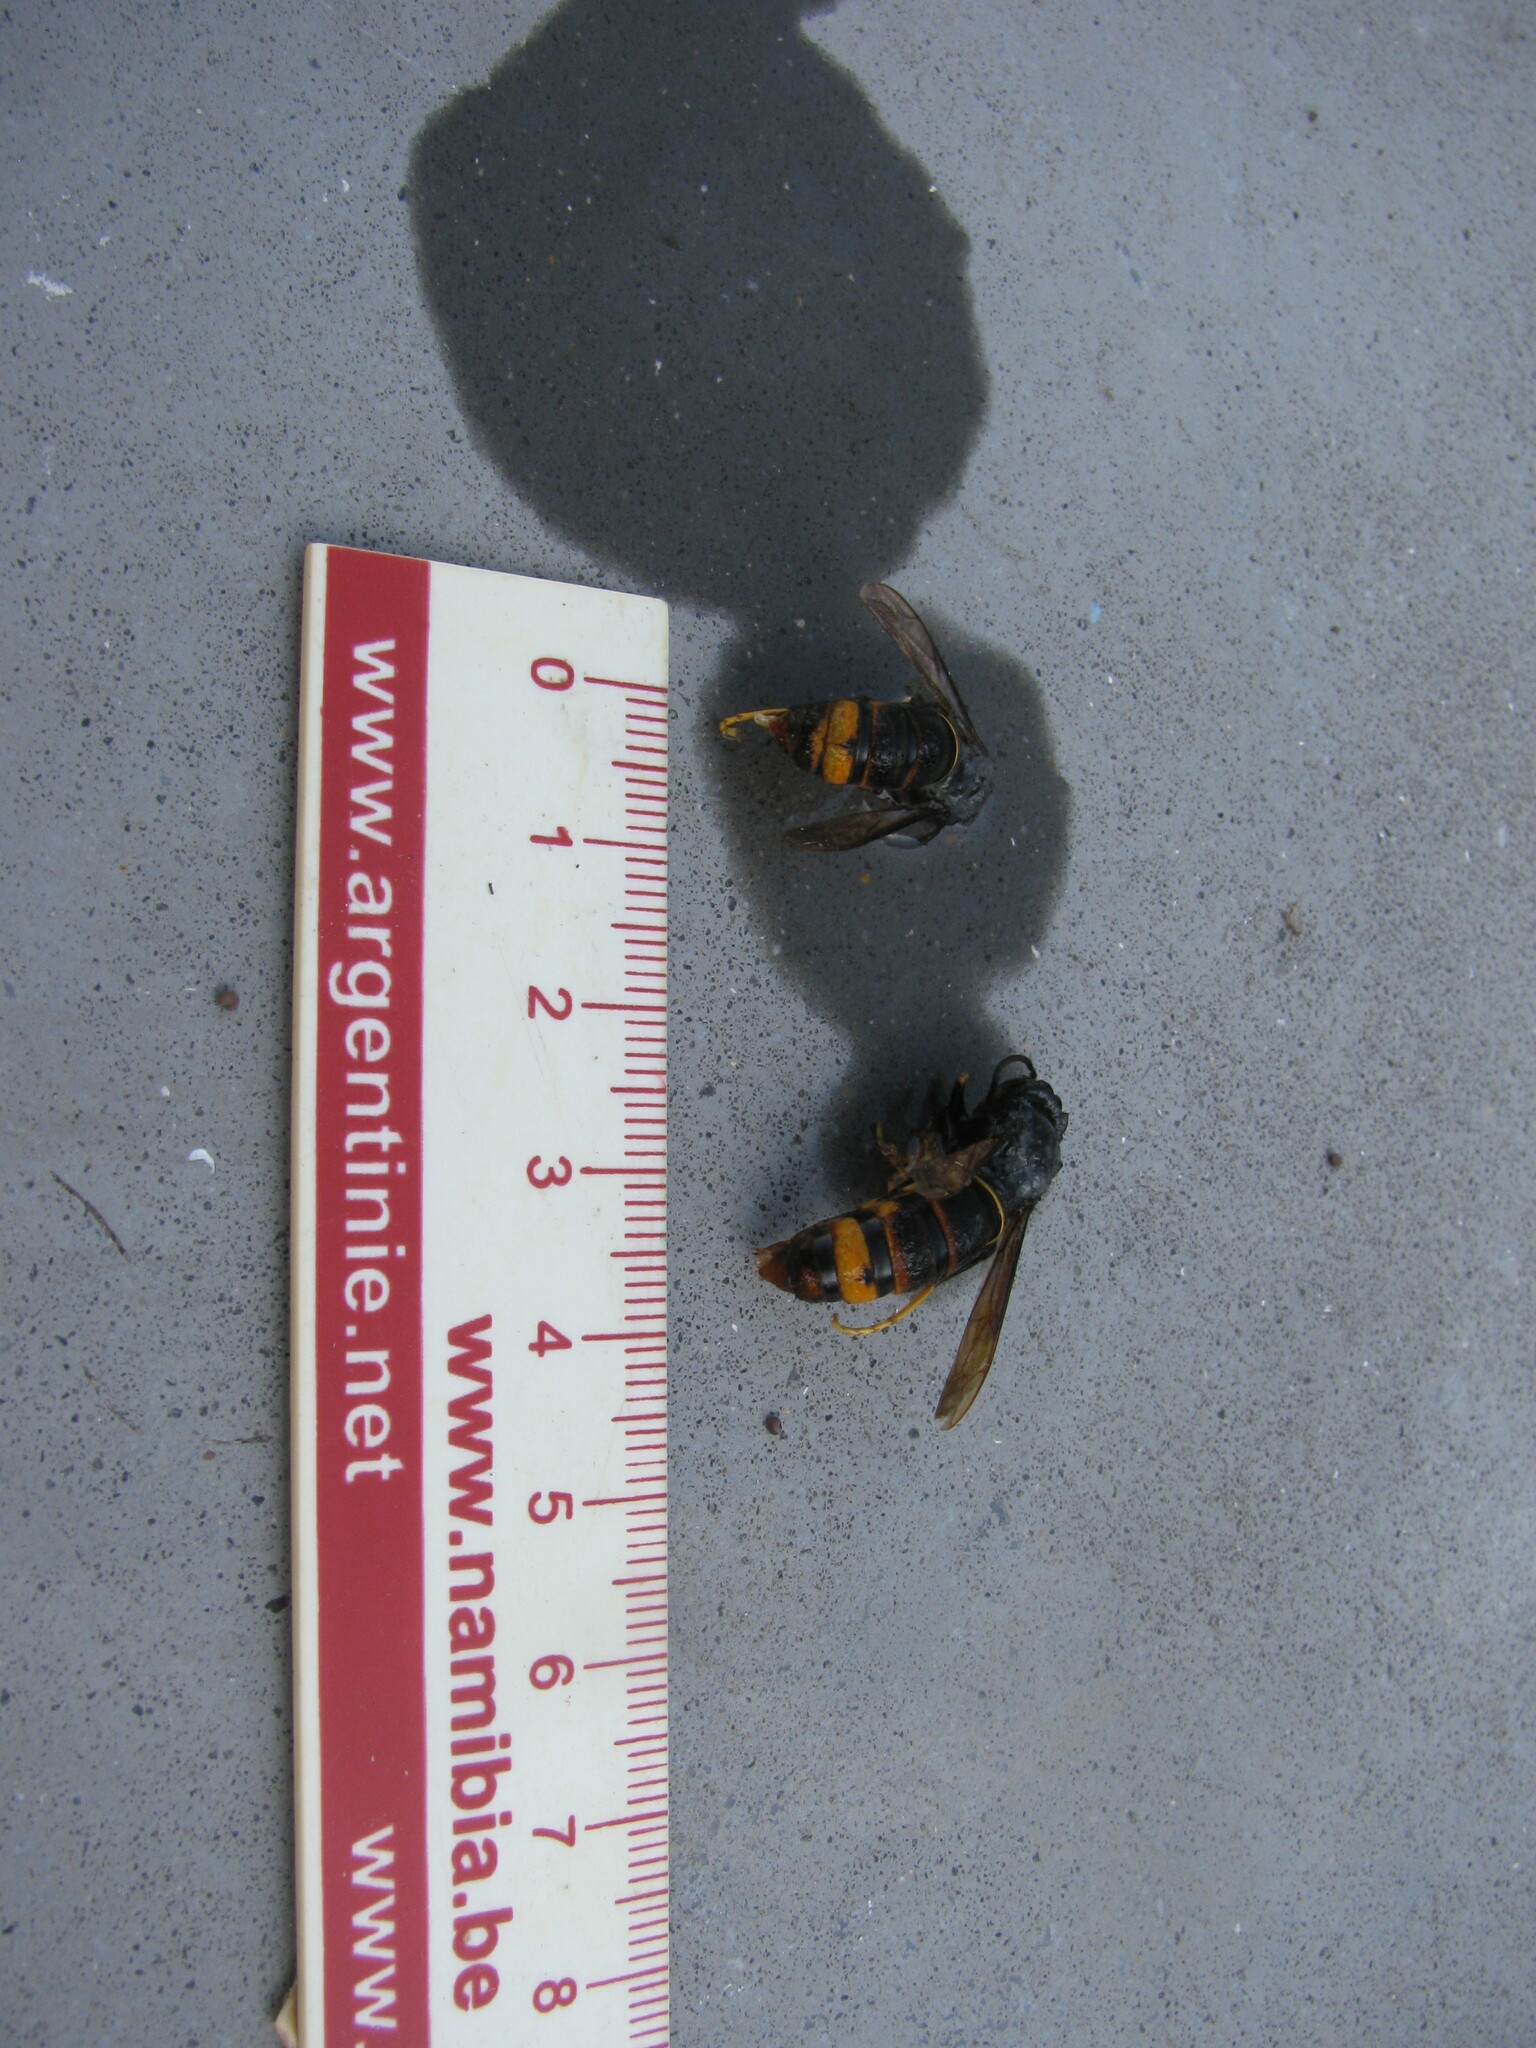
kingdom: Animalia
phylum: Arthropoda
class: Insecta
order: Hymenoptera
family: Vespidae
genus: Vespa
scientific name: Vespa velutina
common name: Asian hornet
